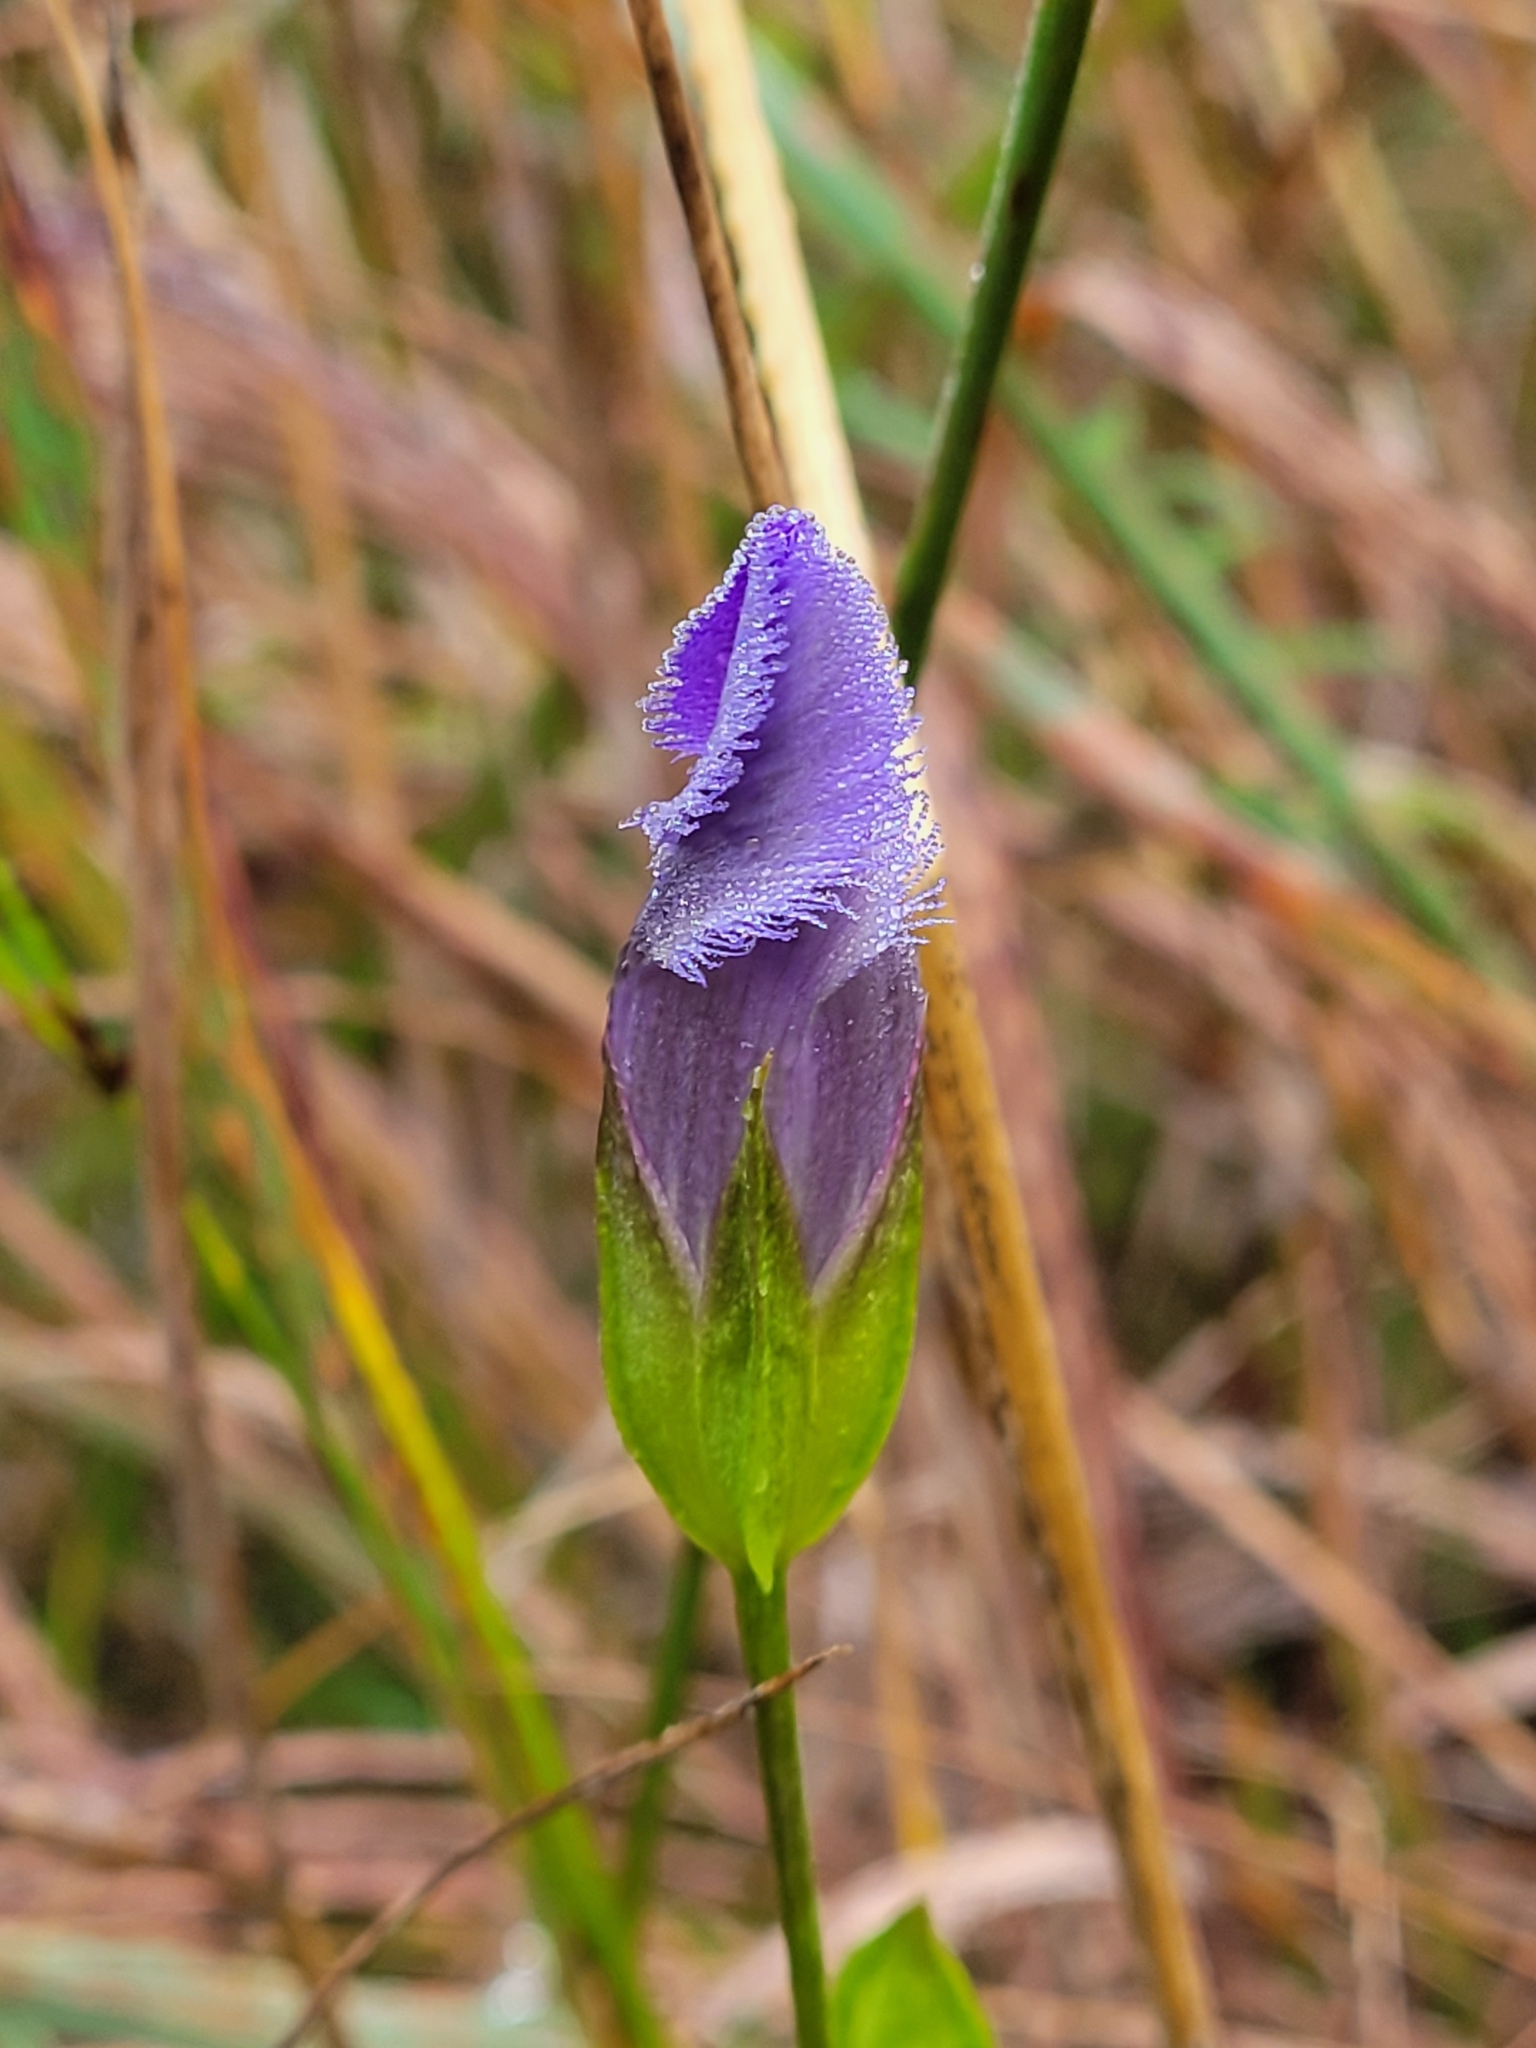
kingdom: Plantae
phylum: Tracheophyta
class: Magnoliopsida
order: Gentianales
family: Gentianaceae
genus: Gentianopsis
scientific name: Gentianopsis crinita
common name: Fringed-gentian
